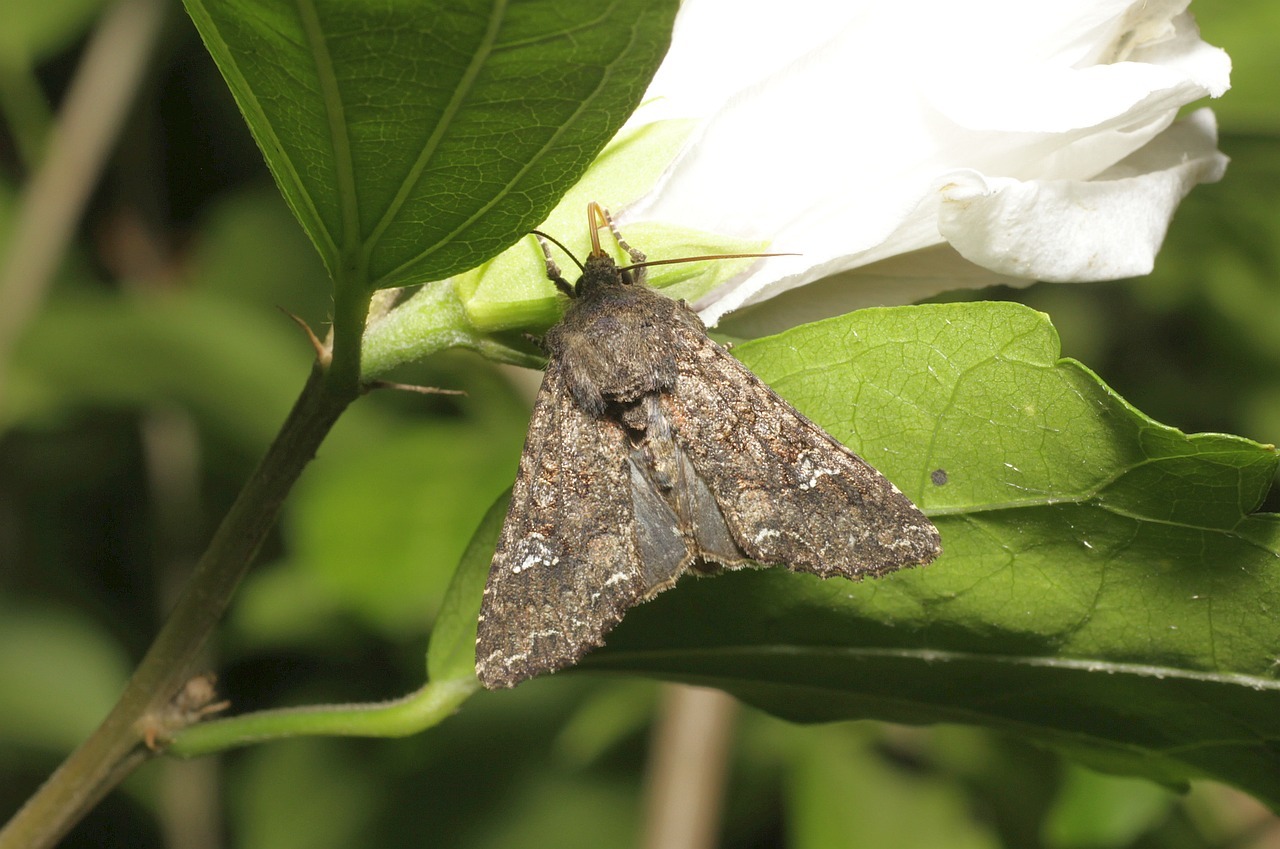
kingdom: Animalia
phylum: Arthropoda
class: Insecta
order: Lepidoptera
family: Noctuidae
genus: Mamestra
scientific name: Mamestra brassicae
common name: Cabbage moth
